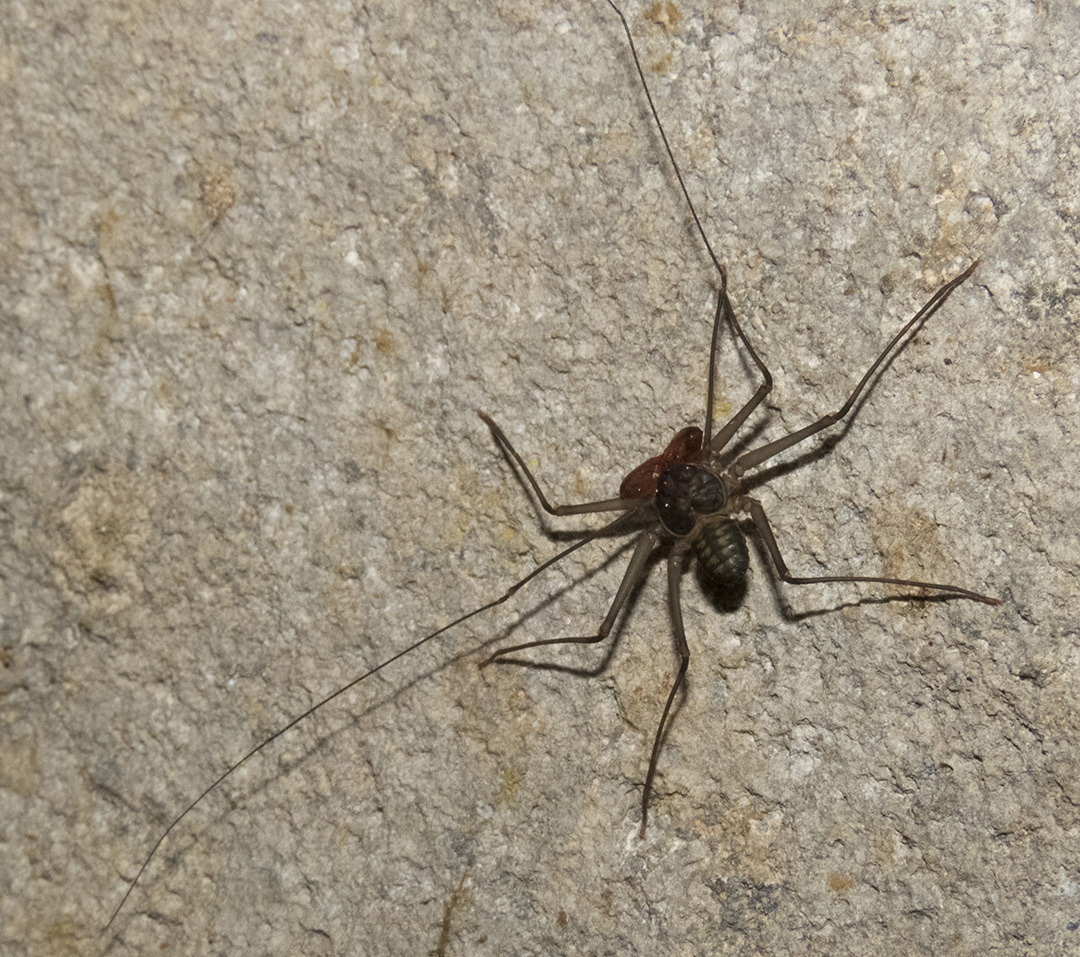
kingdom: Animalia
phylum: Arthropoda
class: Arachnida
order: Amblypygi
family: Charinidae
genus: Sarax
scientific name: Sarax yayukae
